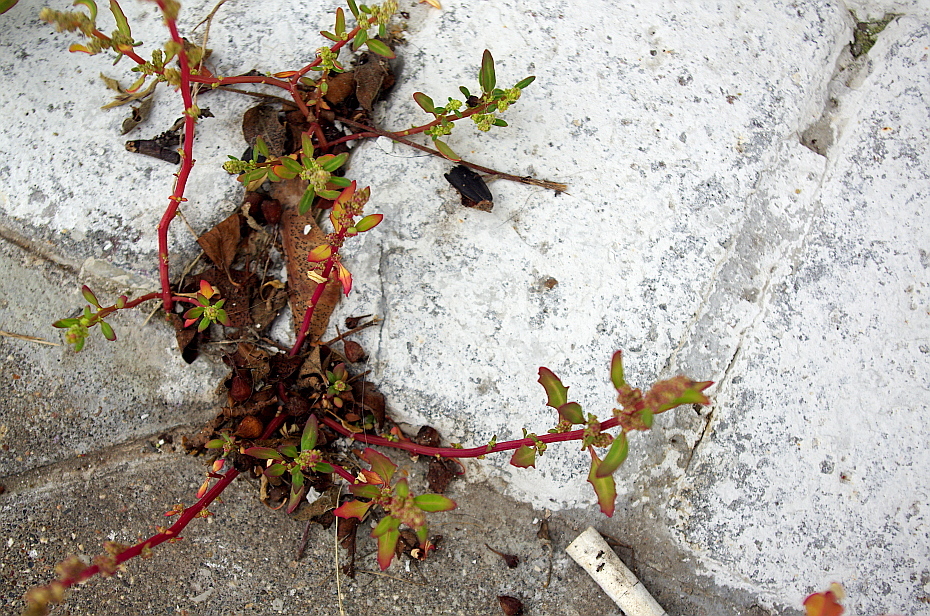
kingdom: Plantae
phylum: Tracheophyta
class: Magnoliopsida
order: Caryophyllales
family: Amaranthaceae
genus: Oxybasis
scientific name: Oxybasis glauca
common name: Glaucous goosefoot
